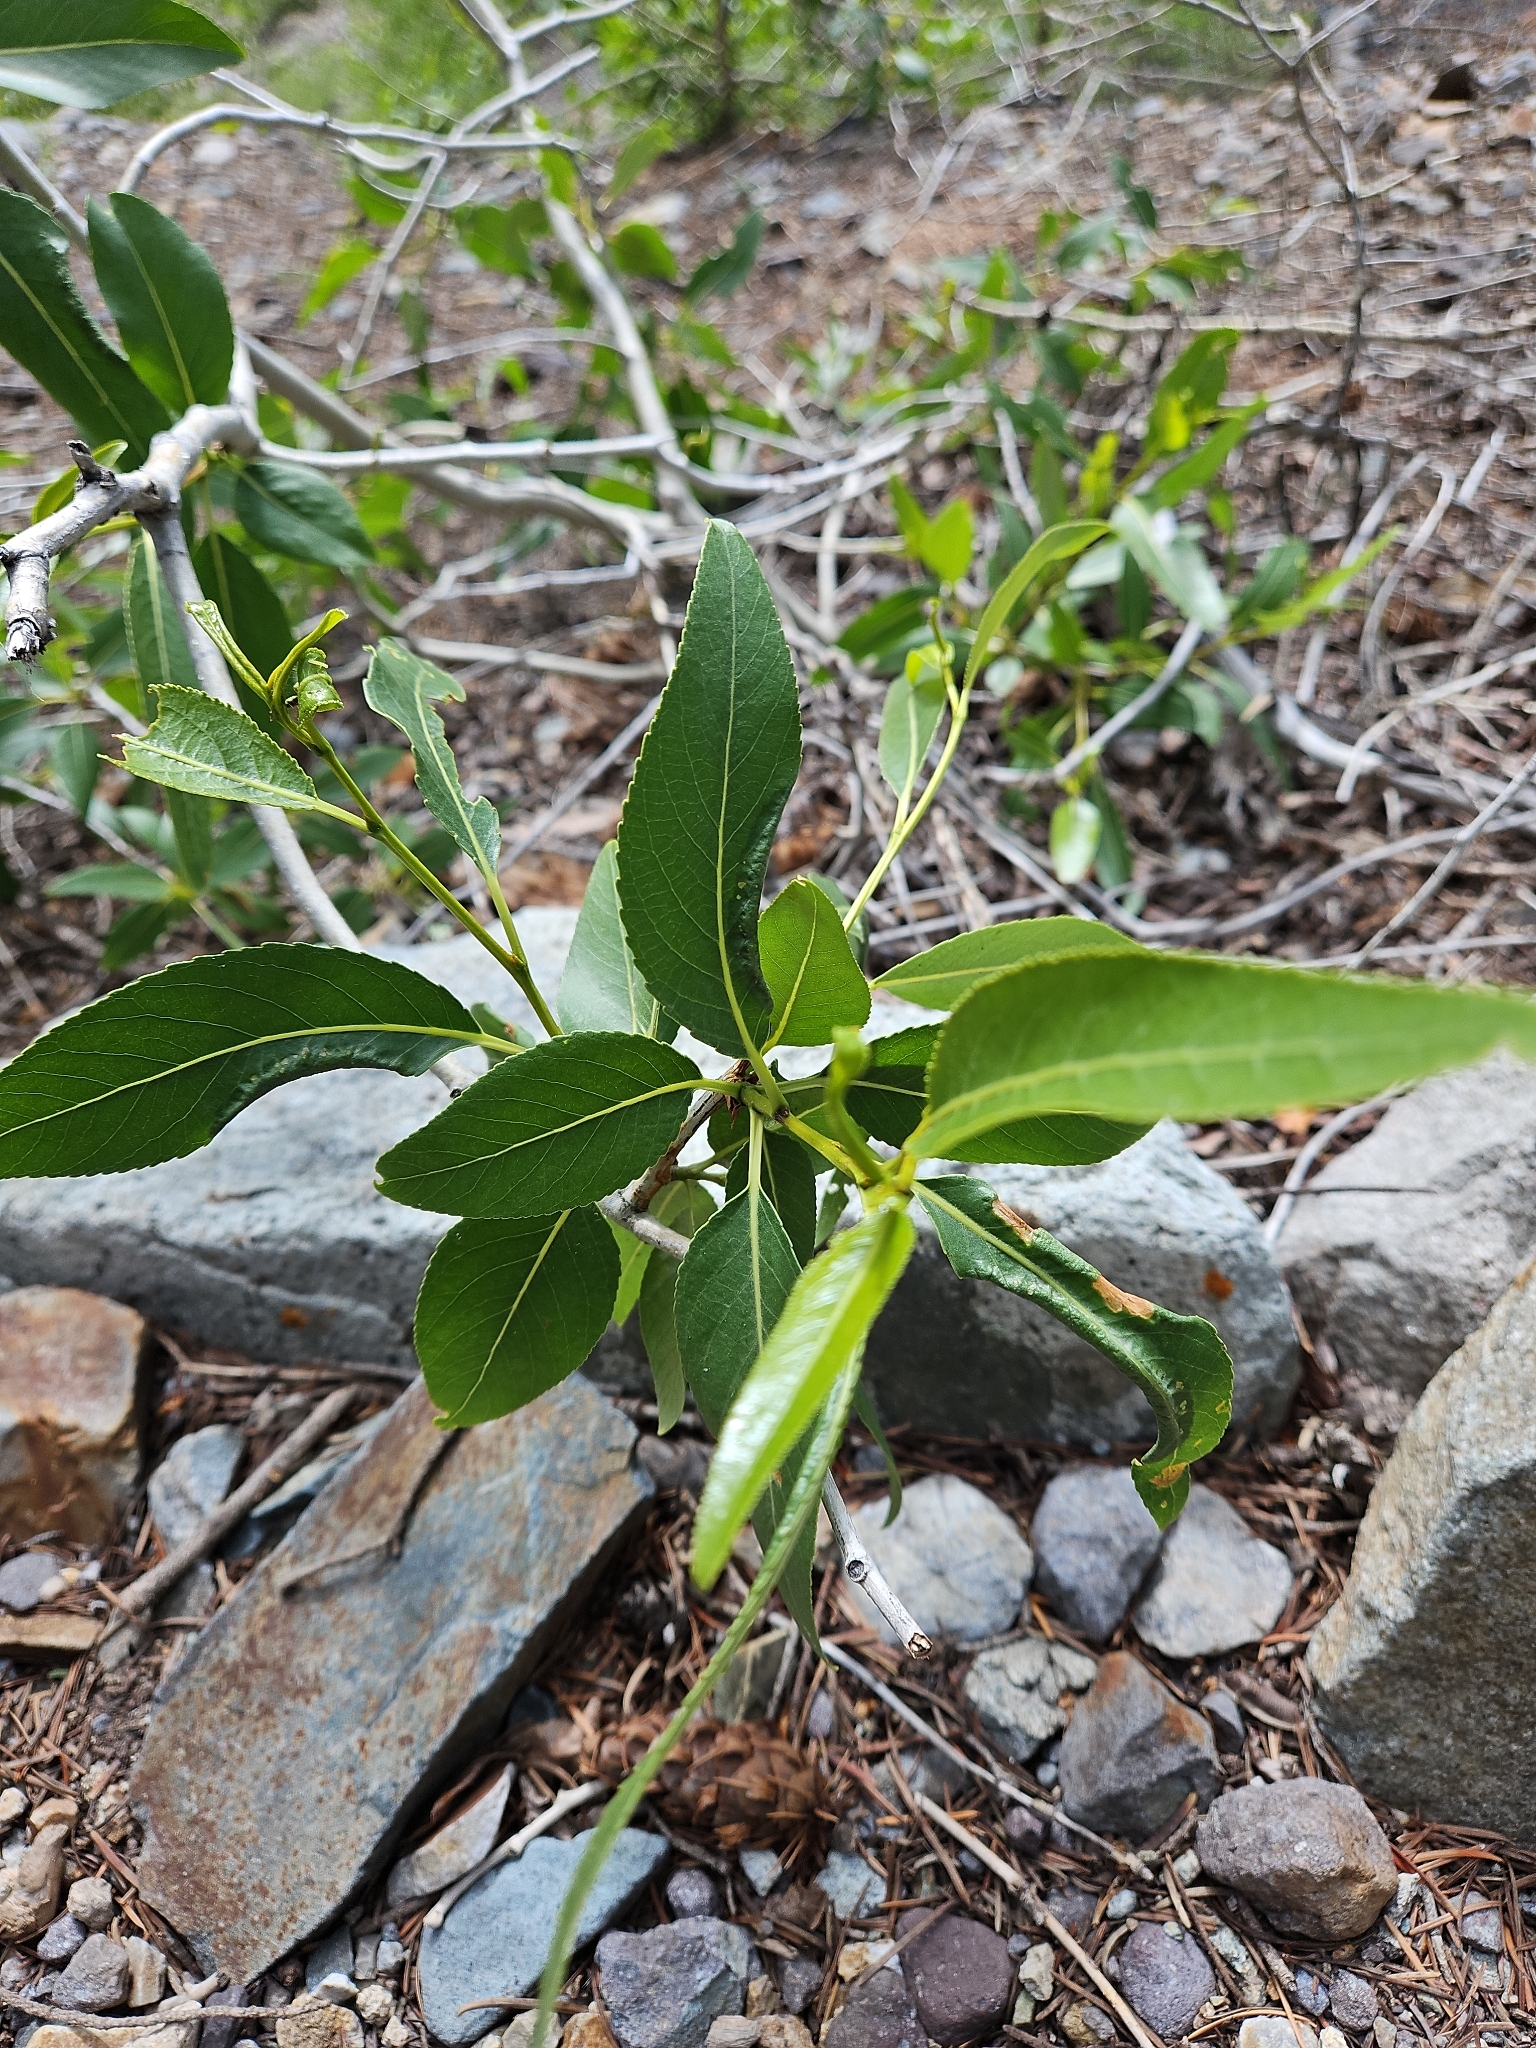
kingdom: Plantae
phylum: Tracheophyta
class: Magnoliopsida
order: Malpighiales
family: Salicaceae
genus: Populus
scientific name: Populus angustifolia
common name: Willow cottonwood
